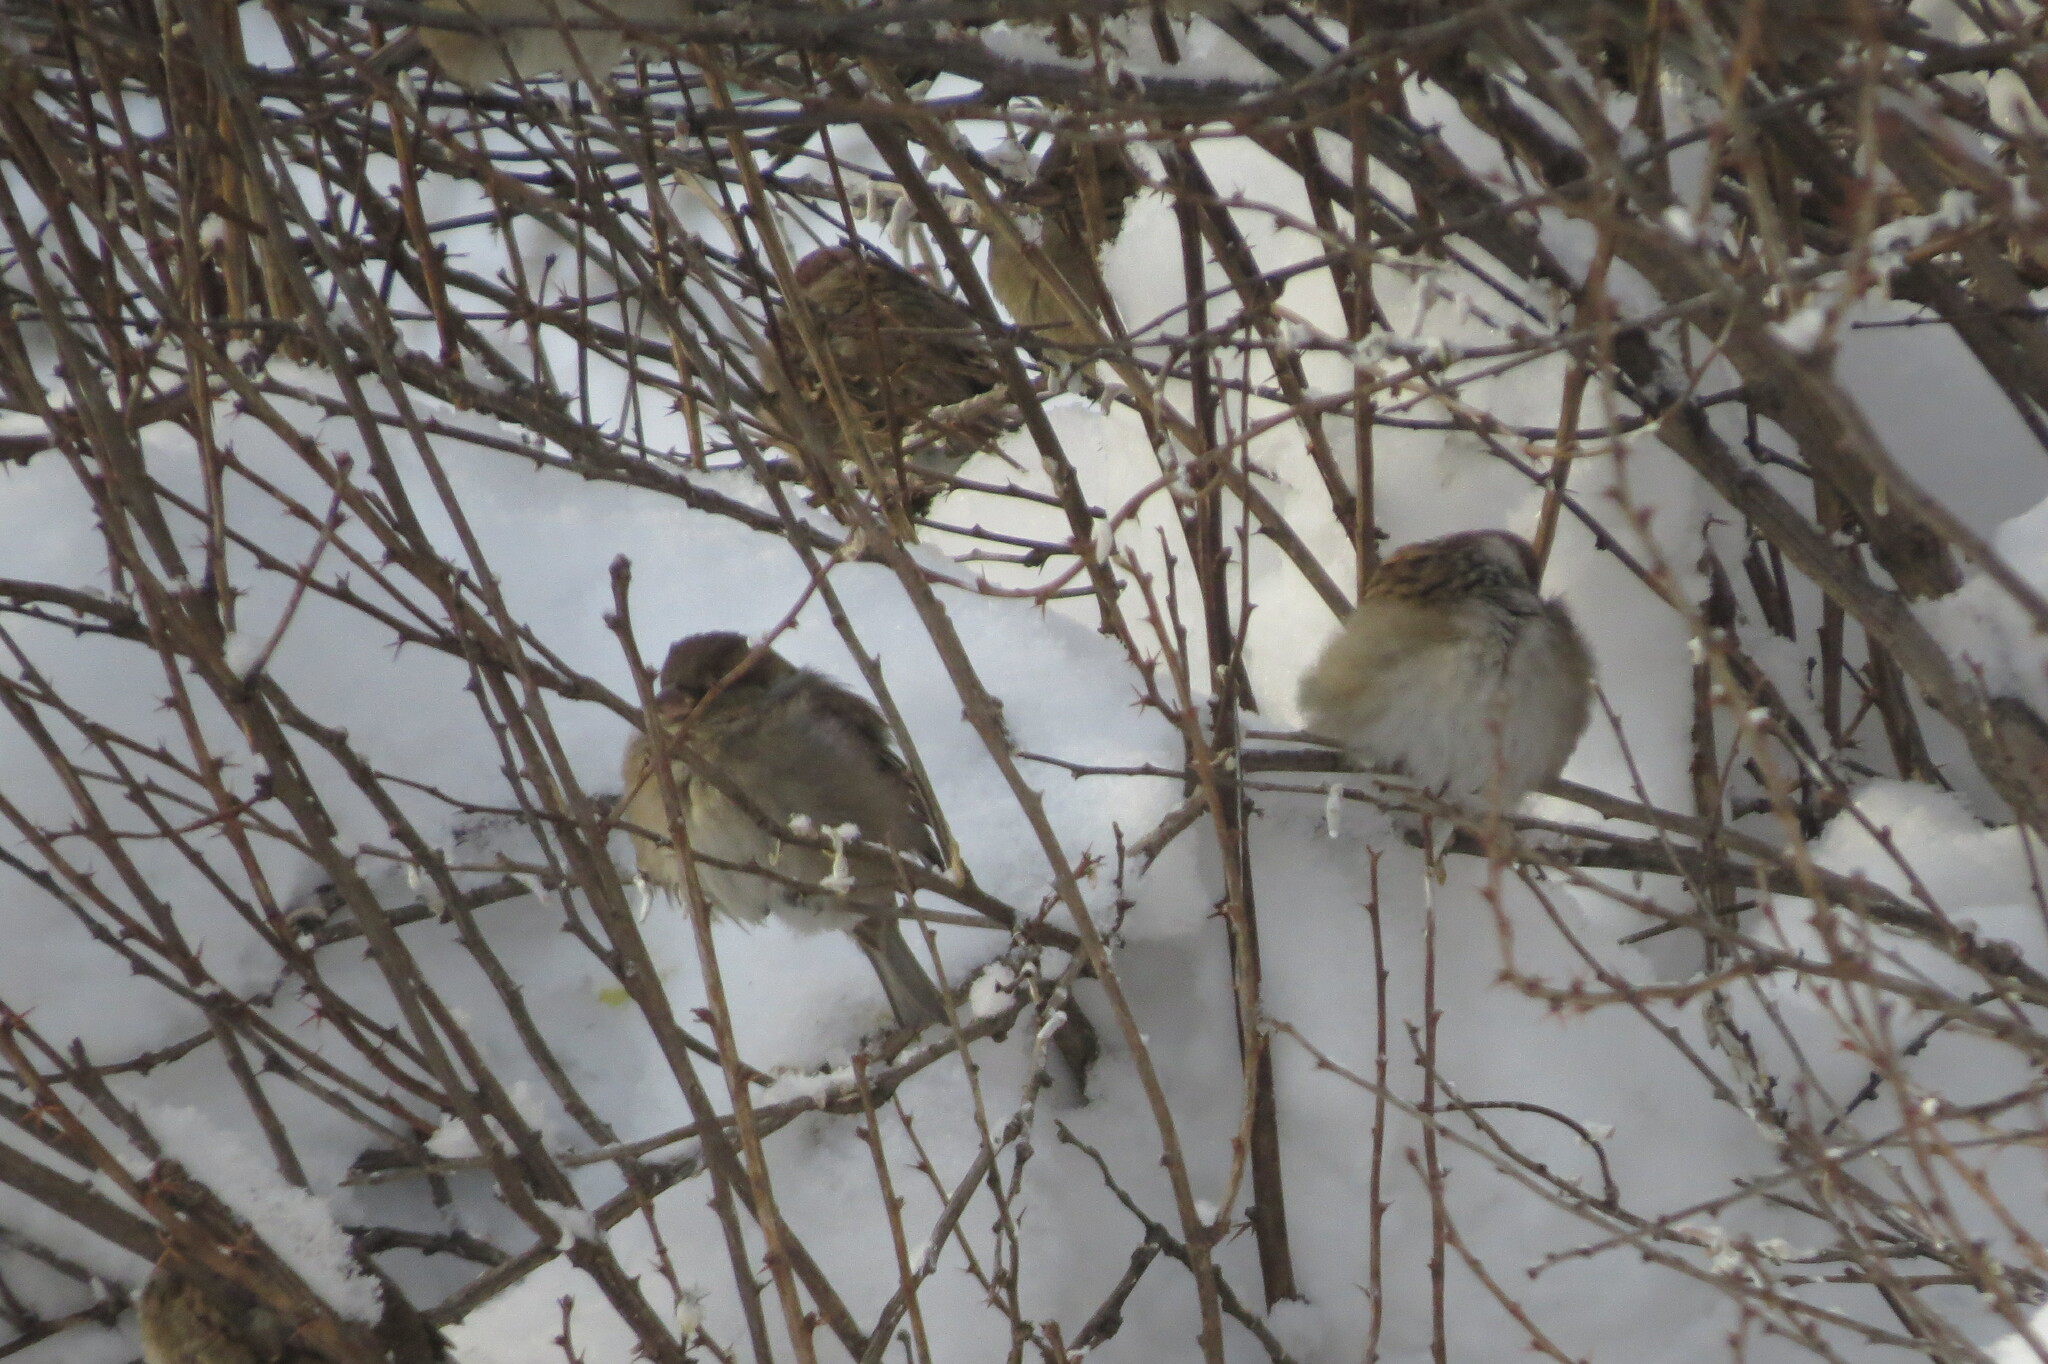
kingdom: Animalia
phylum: Chordata
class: Aves
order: Passeriformes
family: Passeridae
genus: Passer
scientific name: Passer domesticus
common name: House sparrow
